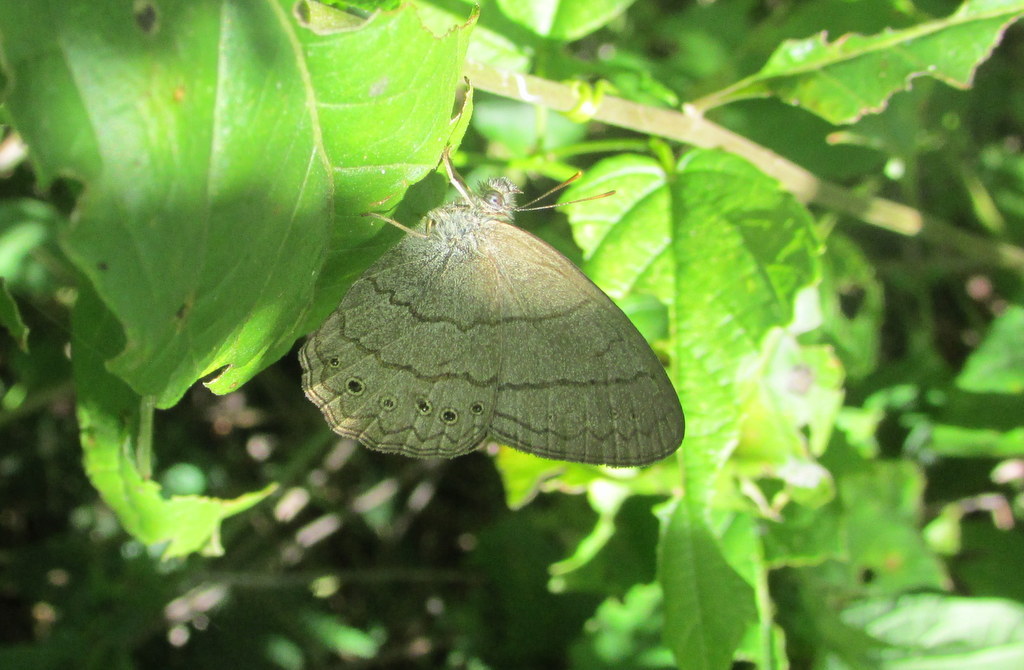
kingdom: Animalia
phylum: Arthropoda
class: Insecta
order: Lepidoptera
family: Nymphalidae
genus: Paryphthimoides
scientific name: Paryphthimoides poltys
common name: Poltys satyr
